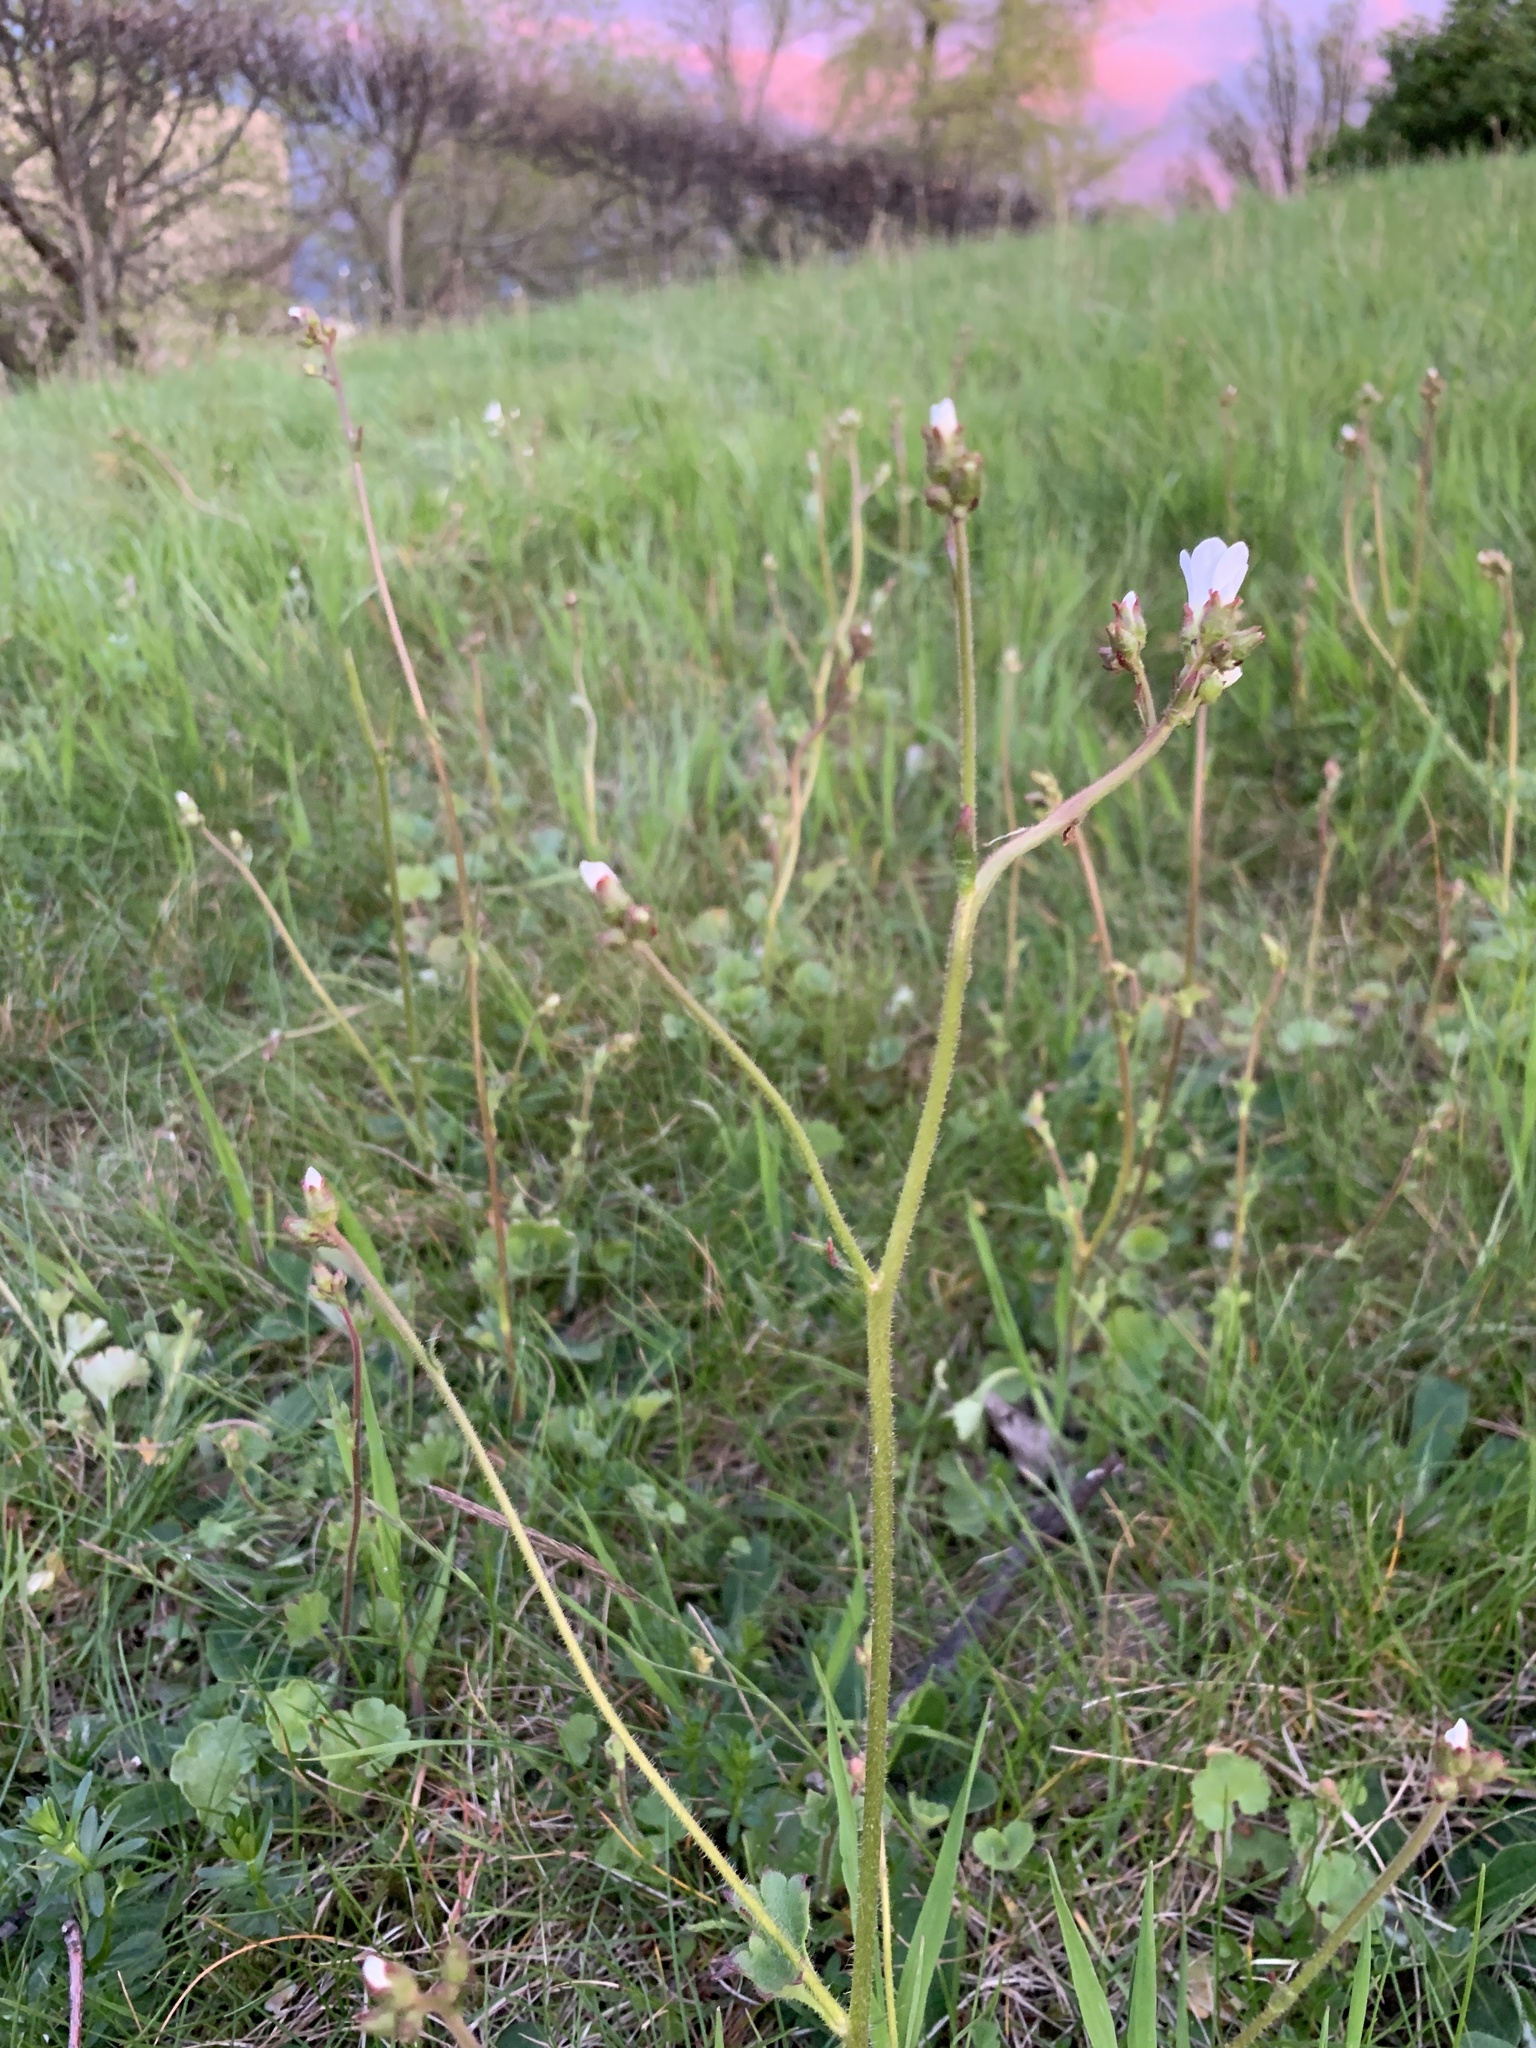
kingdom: Plantae
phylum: Tracheophyta
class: Magnoliopsida
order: Saxifragales
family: Saxifragaceae
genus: Saxifraga
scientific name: Saxifraga granulata
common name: Meadow saxifrage
